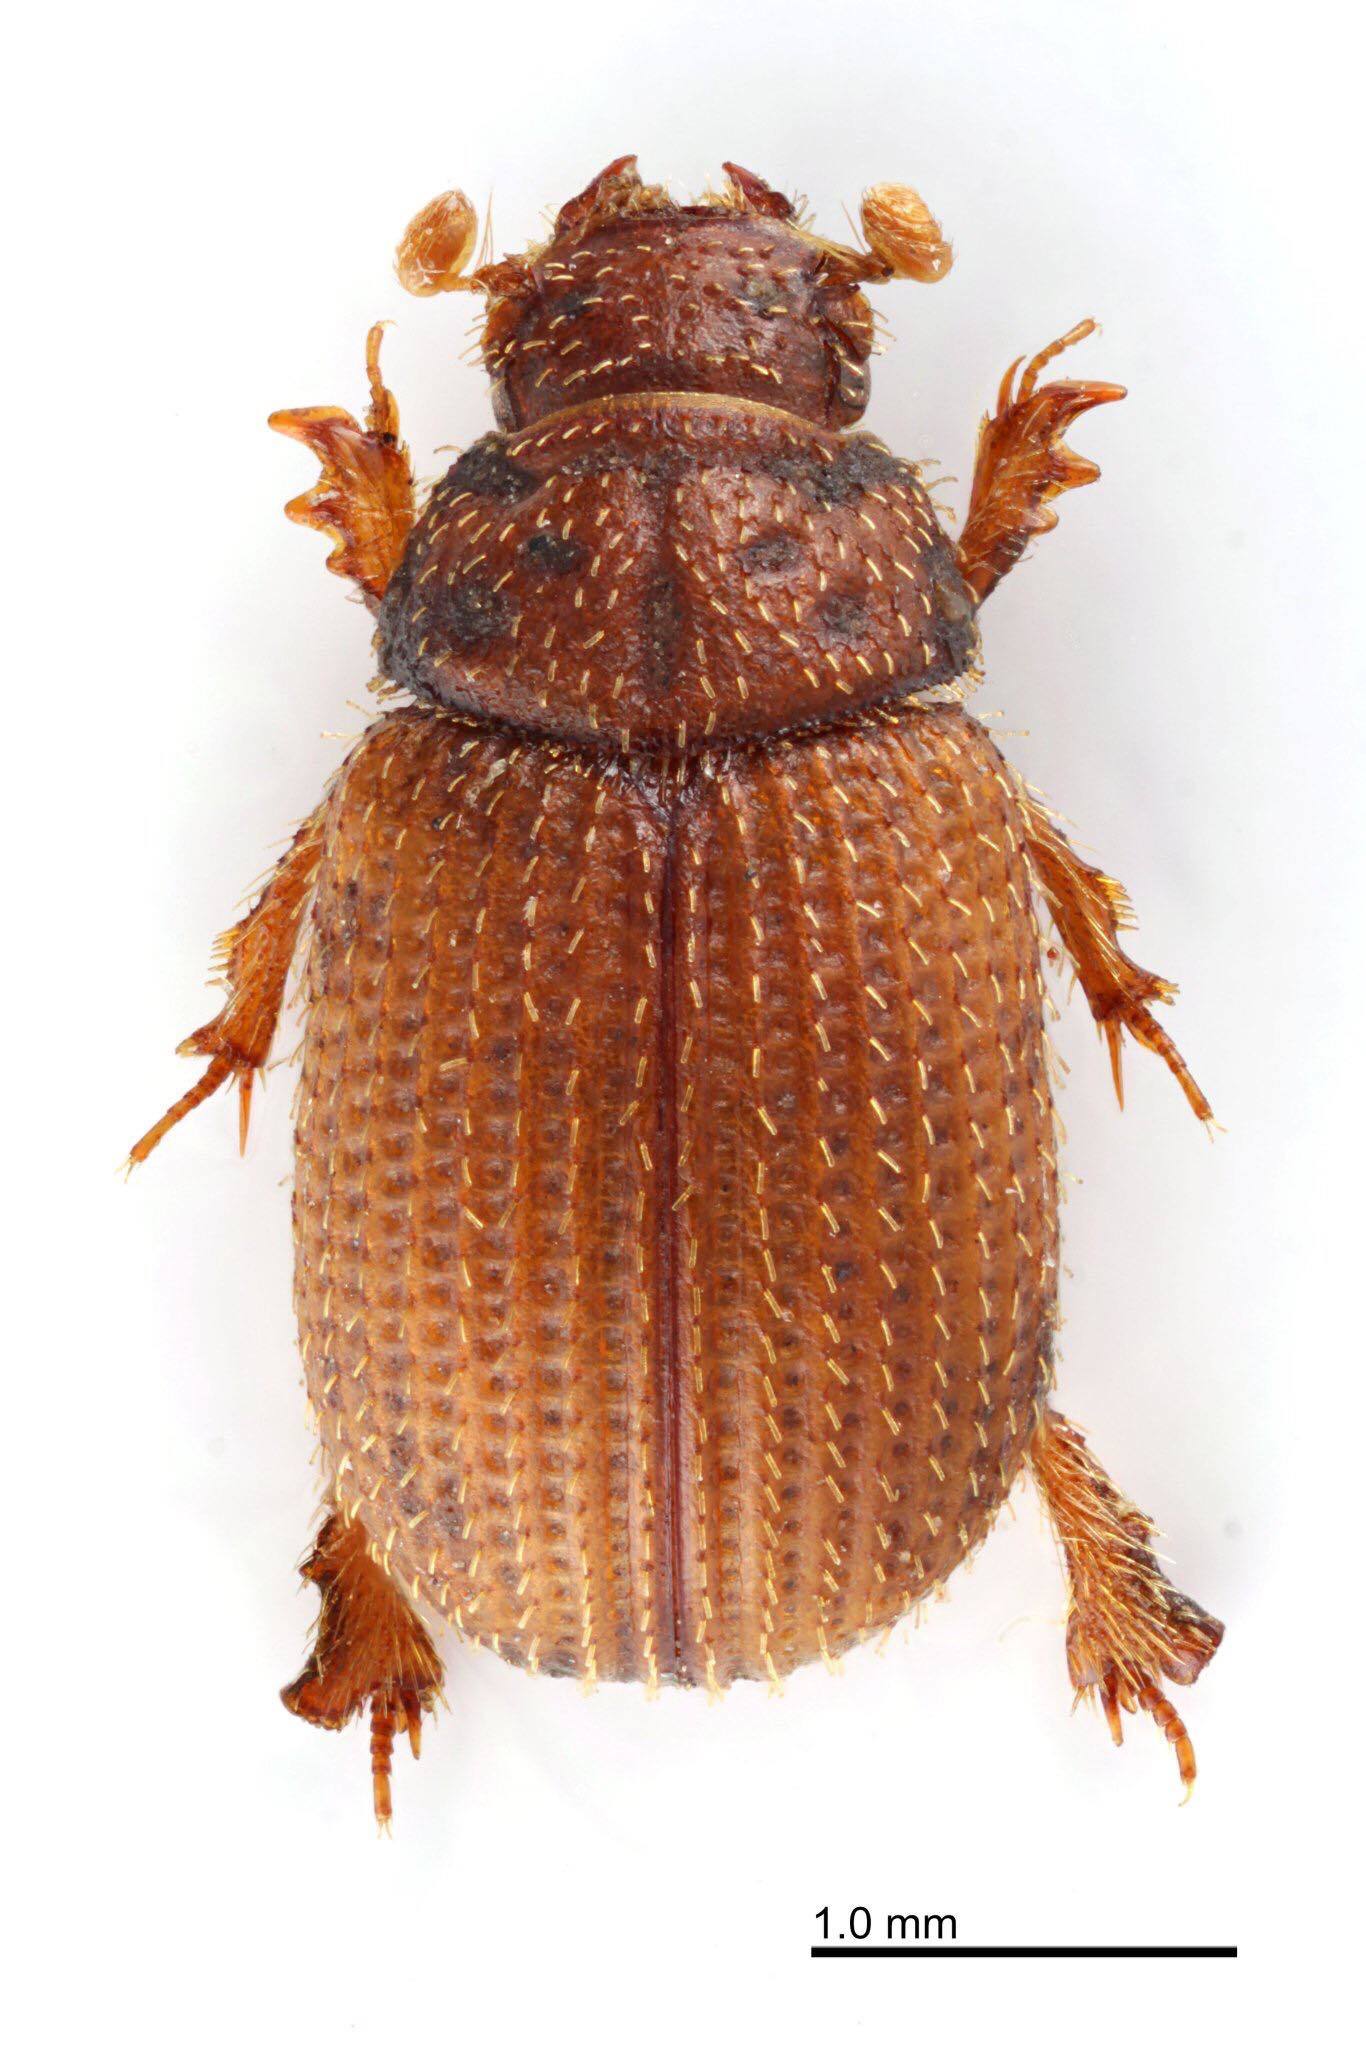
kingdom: Animalia
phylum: Arthropoda
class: Insecta
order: Coleoptera
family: Glaresidae
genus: Glaresis
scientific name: Glaresis japonensis
